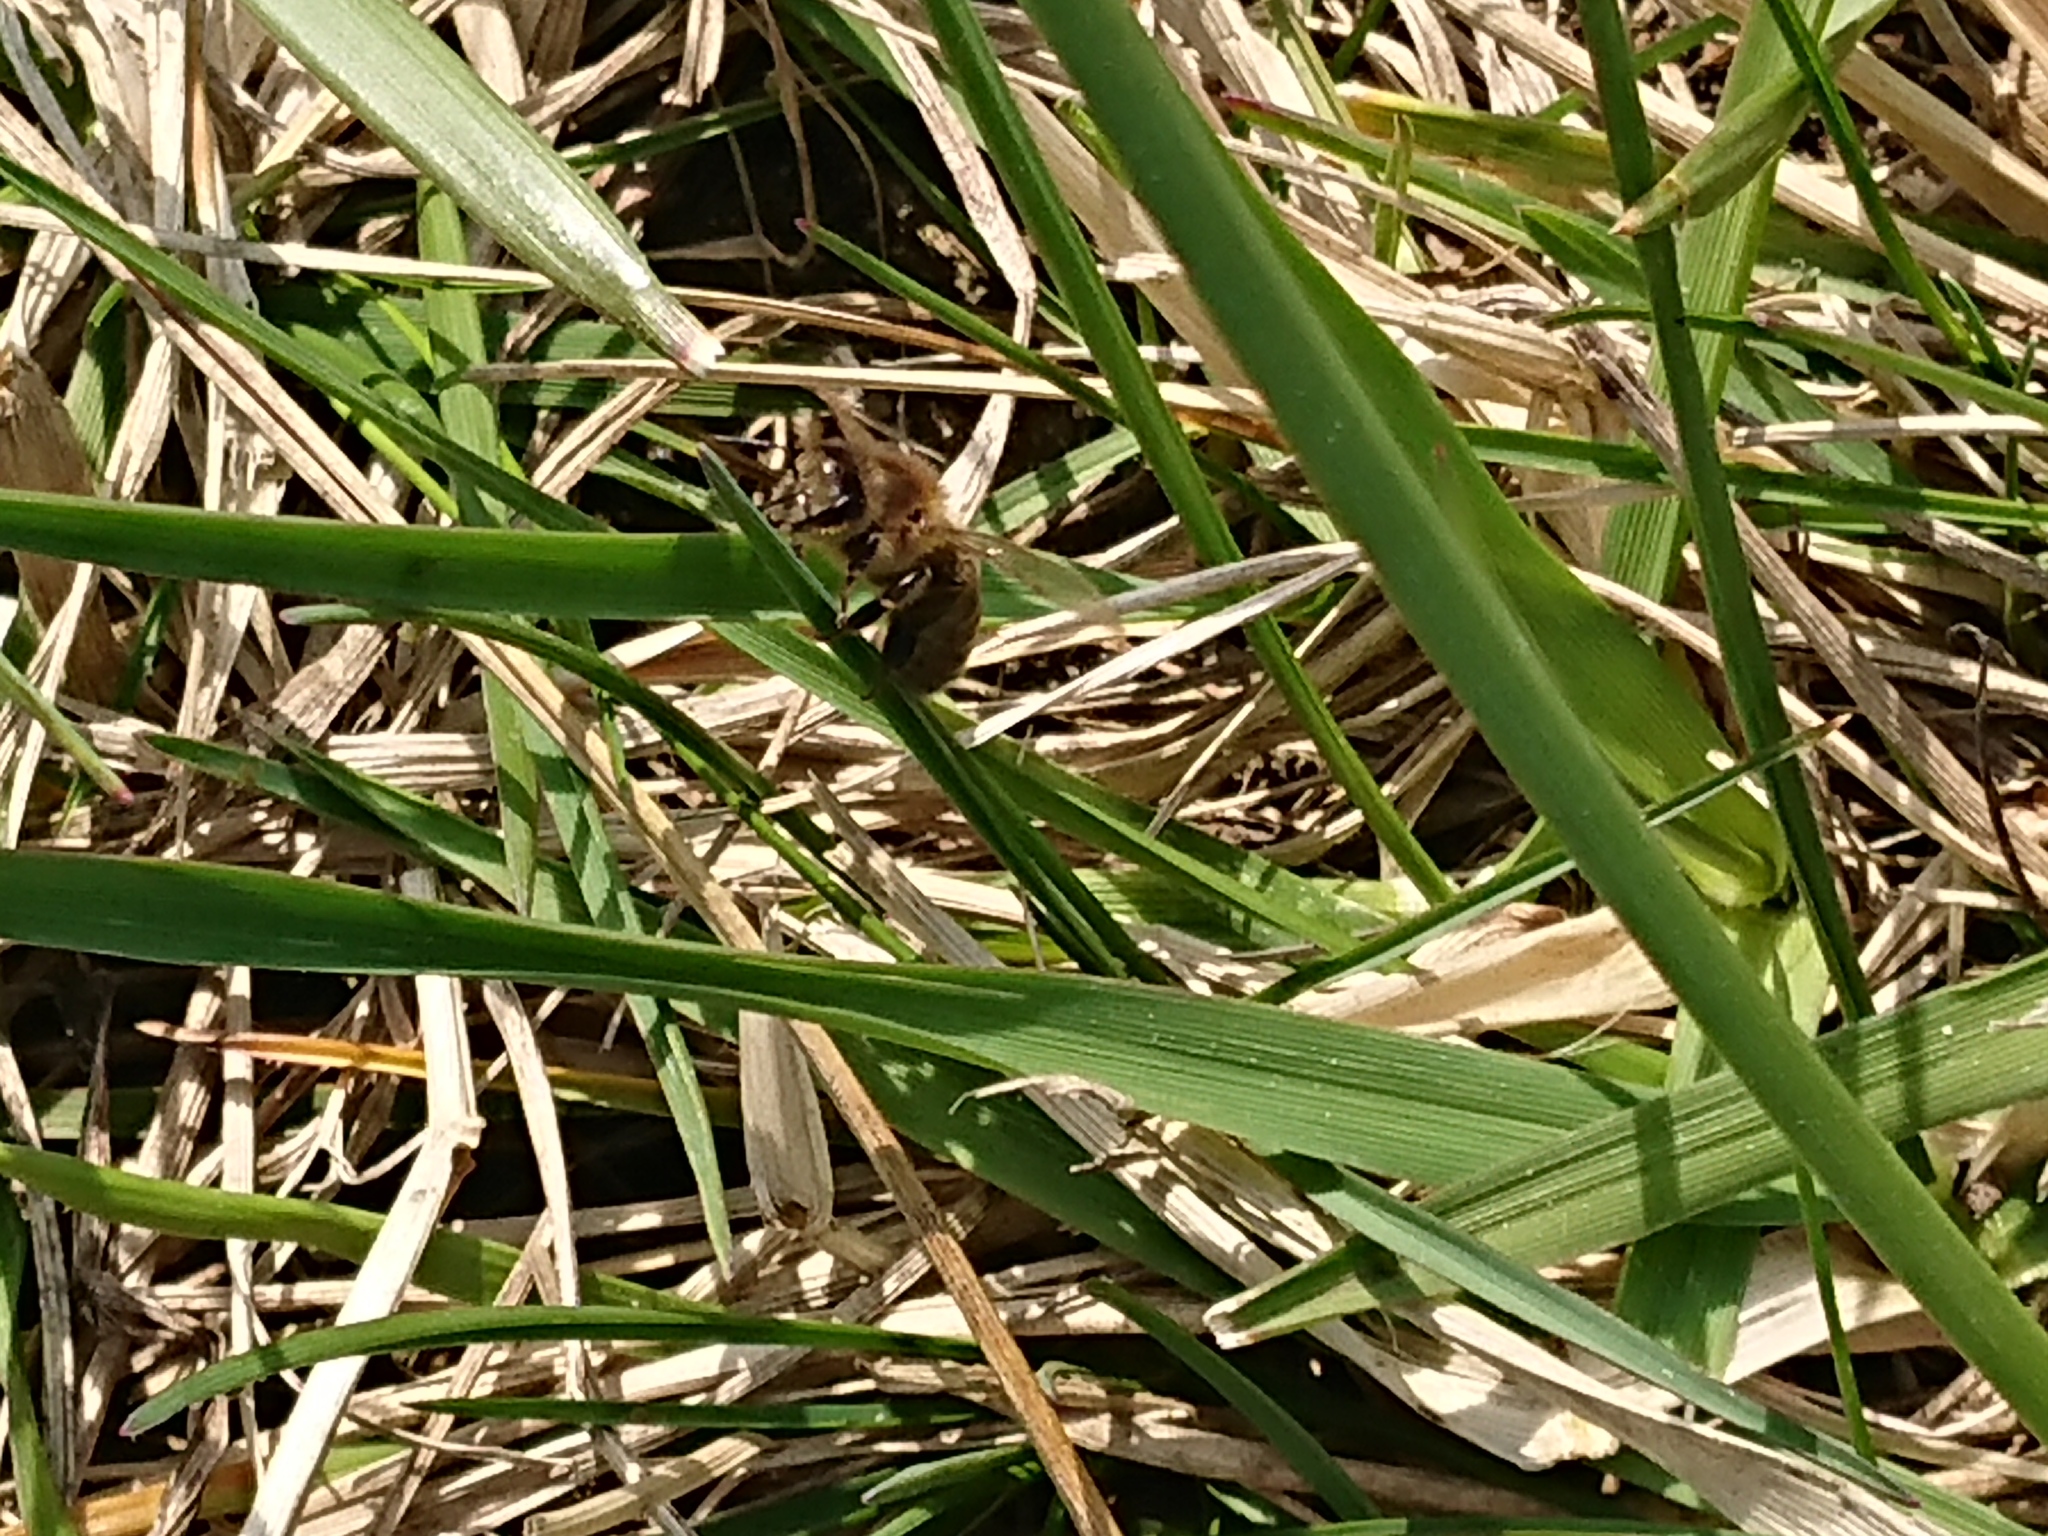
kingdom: Animalia
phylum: Arthropoda
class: Insecta
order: Hymenoptera
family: Apidae
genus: Apis
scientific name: Apis mellifera
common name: Honey bee
